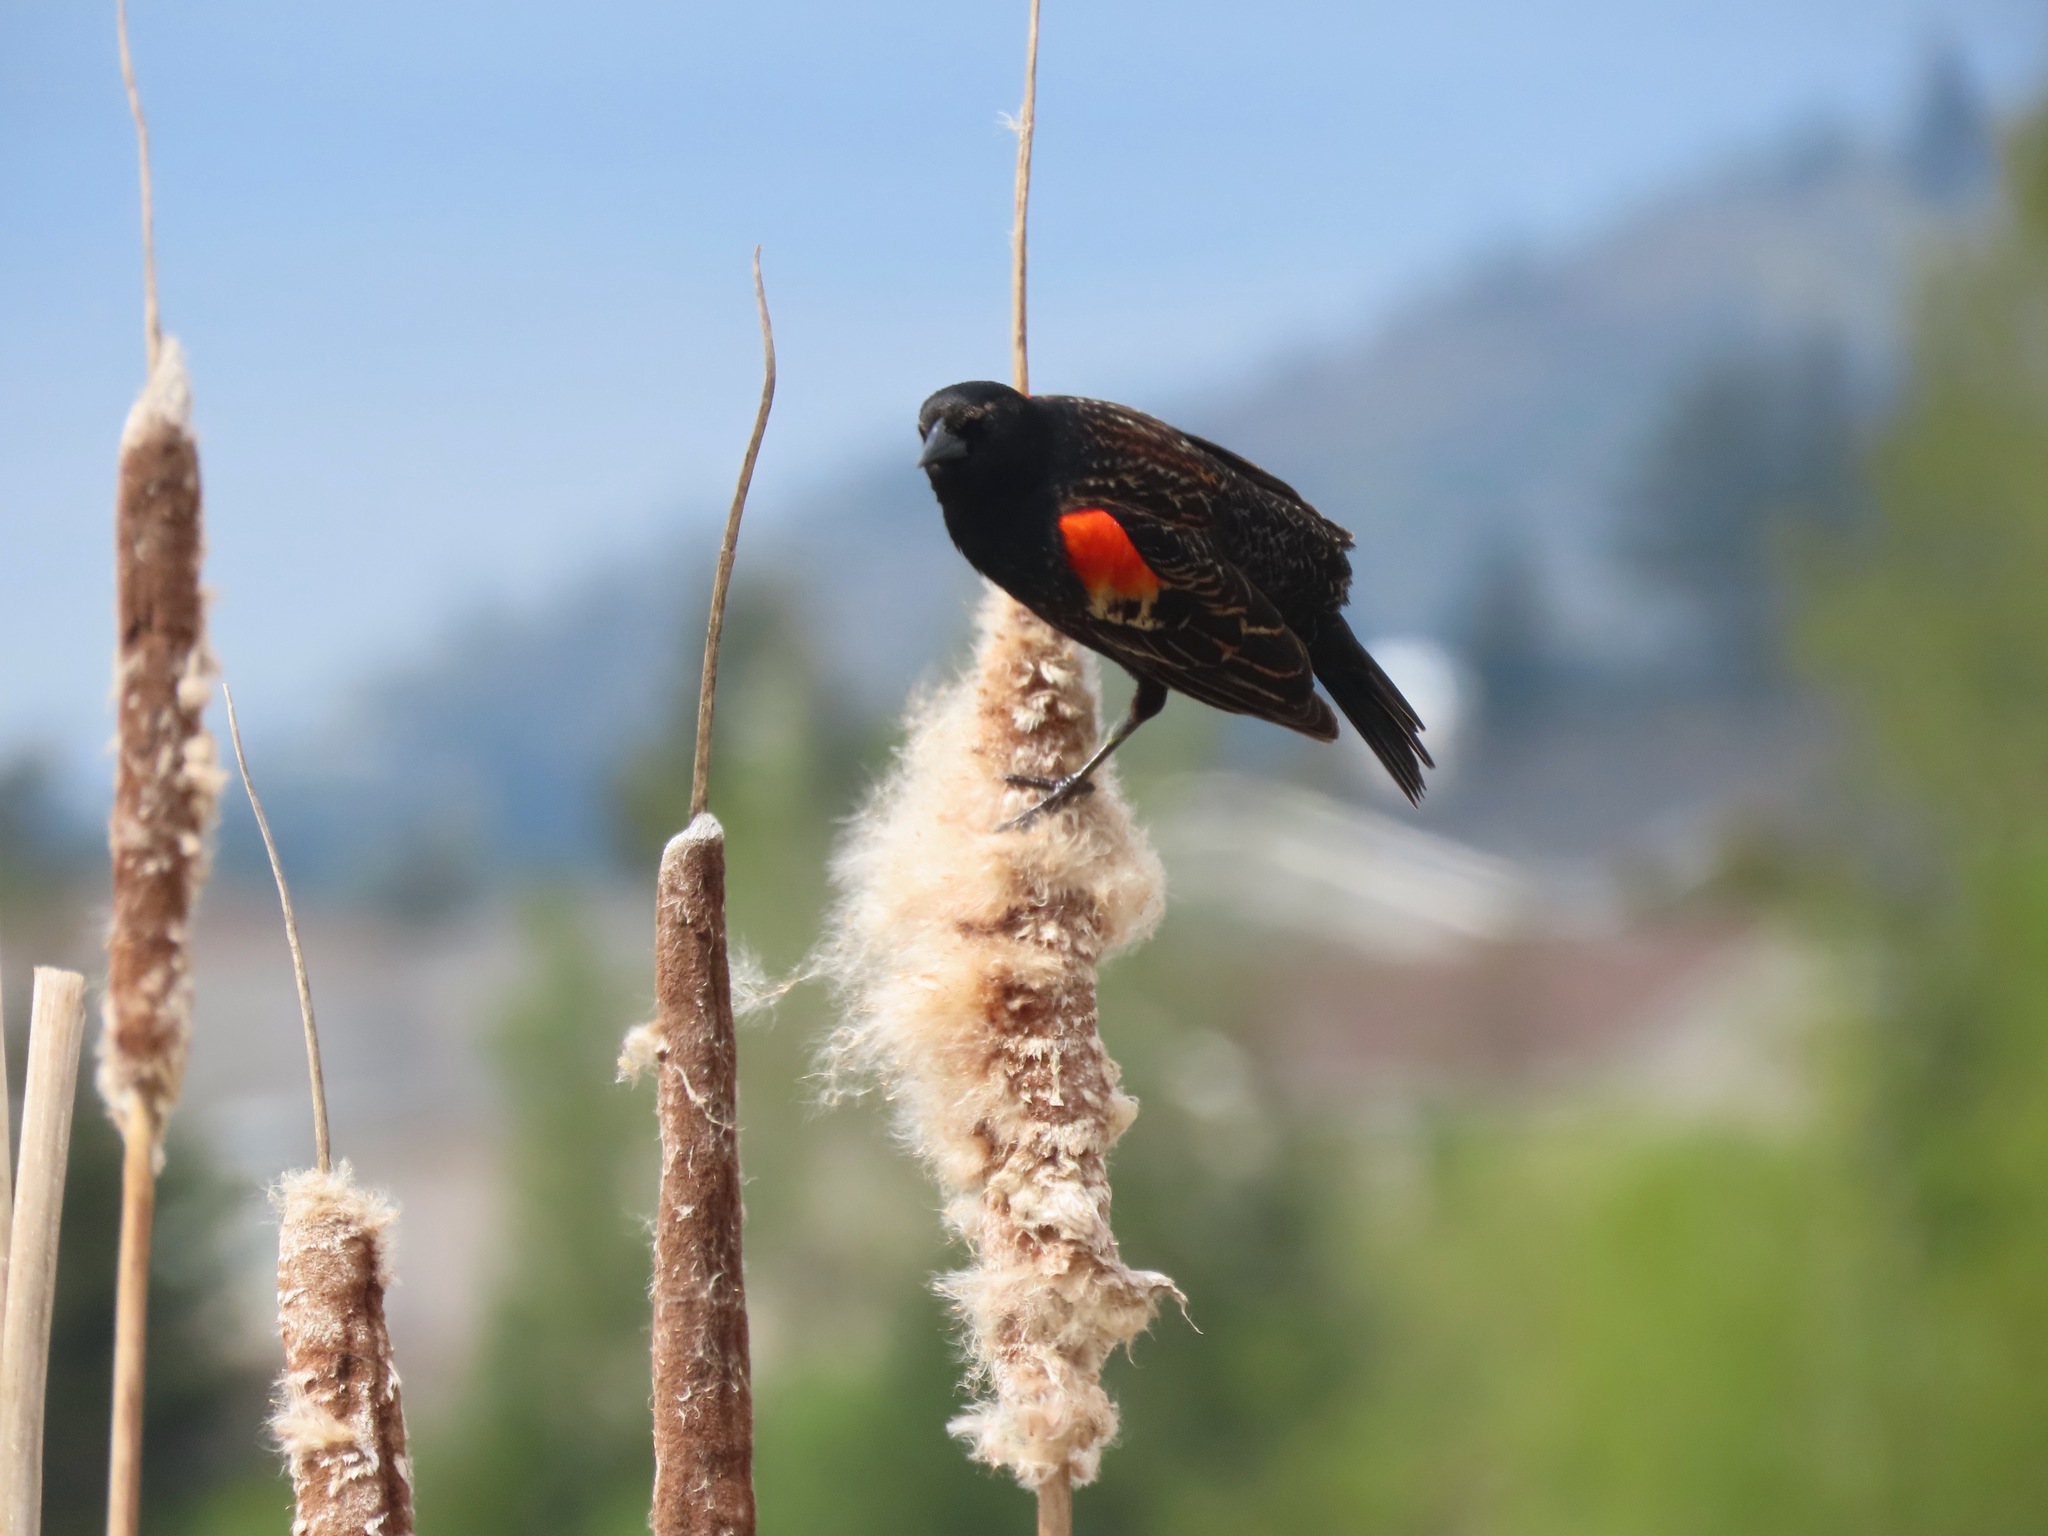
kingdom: Animalia
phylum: Chordata
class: Aves
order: Passeriformes
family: Icteridae
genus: Agelaius
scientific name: Agelaius phoeniceus
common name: Red-winged blackbird
